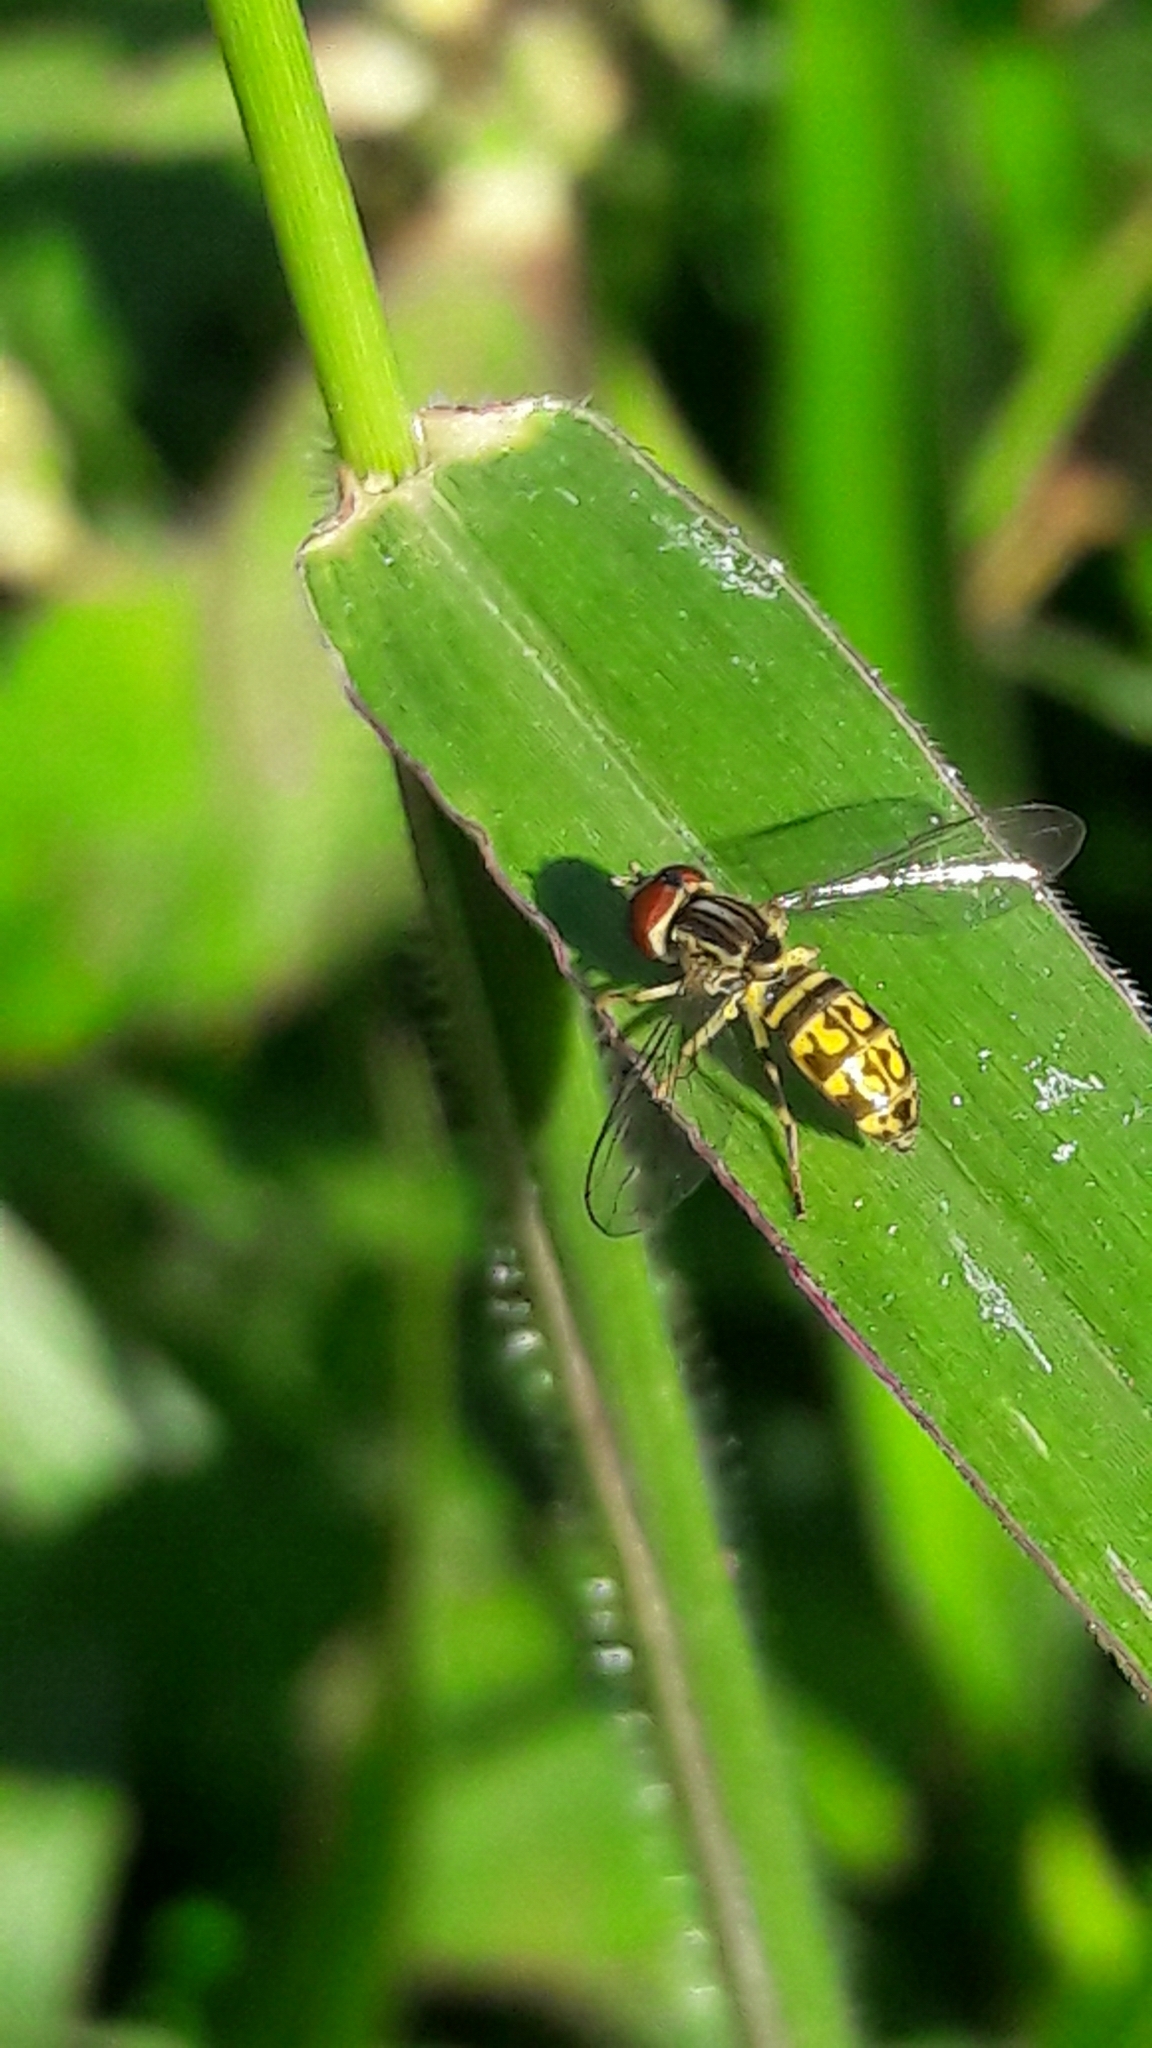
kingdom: Animalia
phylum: Arthropoda
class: Insecta
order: Diptera
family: Syrphidae
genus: Toxomerus
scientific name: Toxomerus
